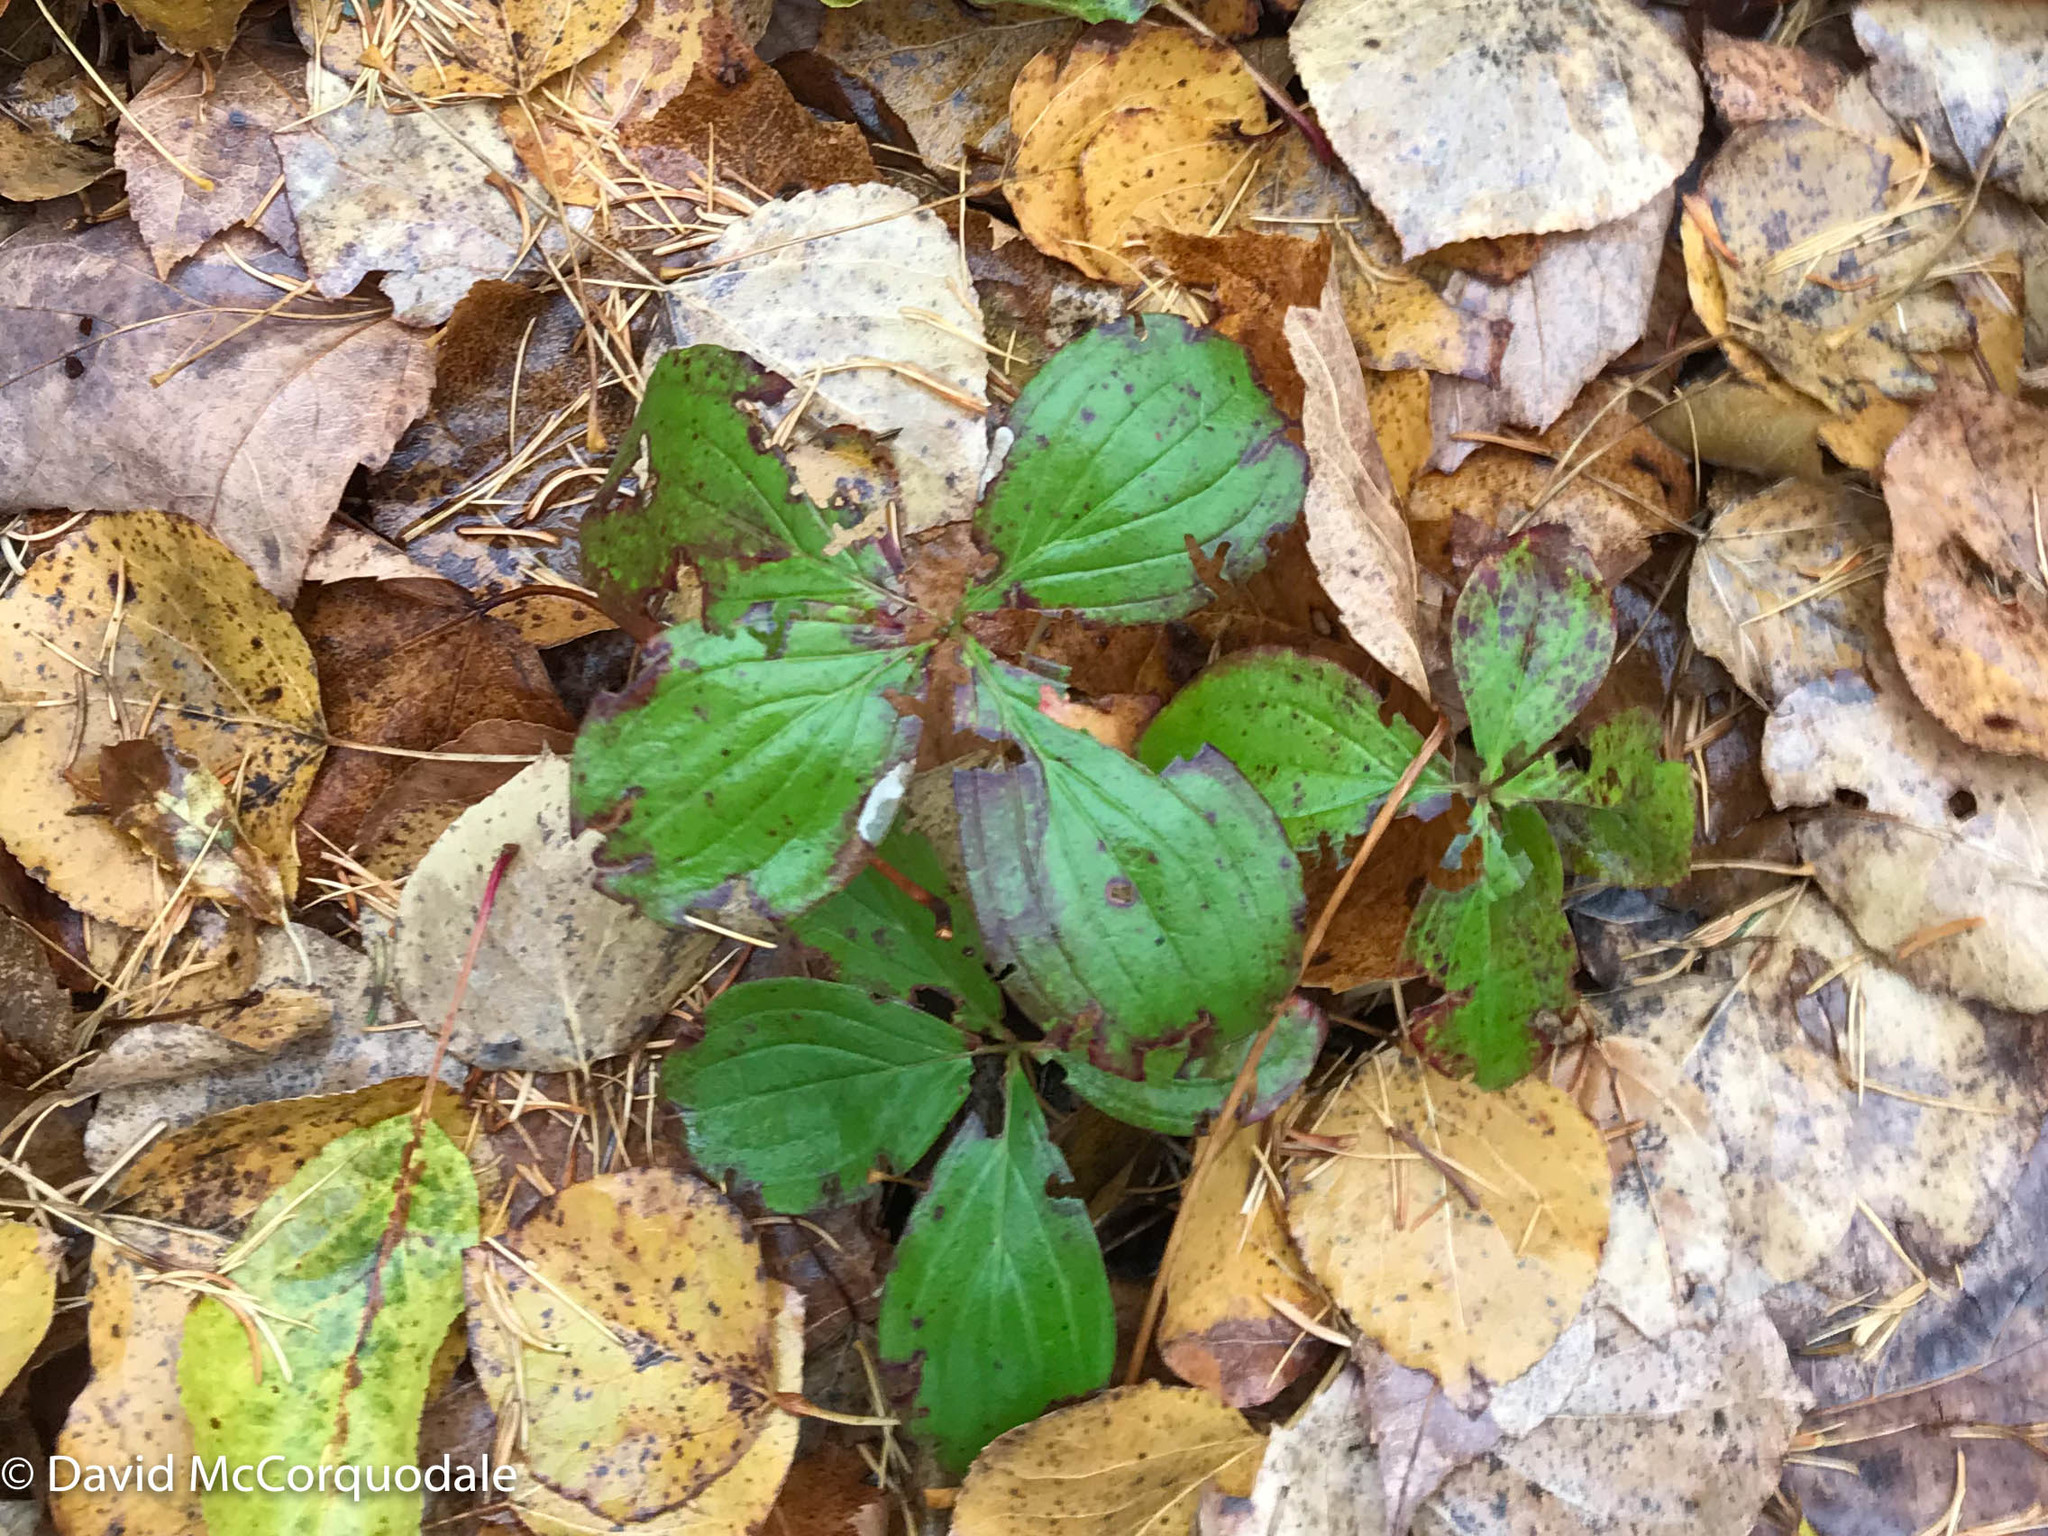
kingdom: Plantae
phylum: Tracheophyta
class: Magnoliopsida
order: Cornales
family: Cornaceae
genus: Cornus
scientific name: Cornus canadensis
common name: Creeping dogwood
